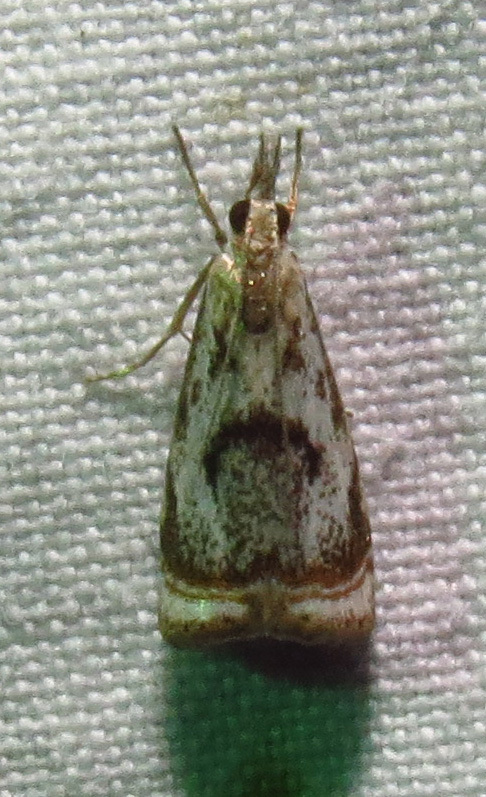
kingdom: Animalia
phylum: Arthropoda
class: Insecta
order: Lepidoptera
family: Crambidae
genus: Microcrambus
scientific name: Microcrambus elegans
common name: Elegant grass-veneer
